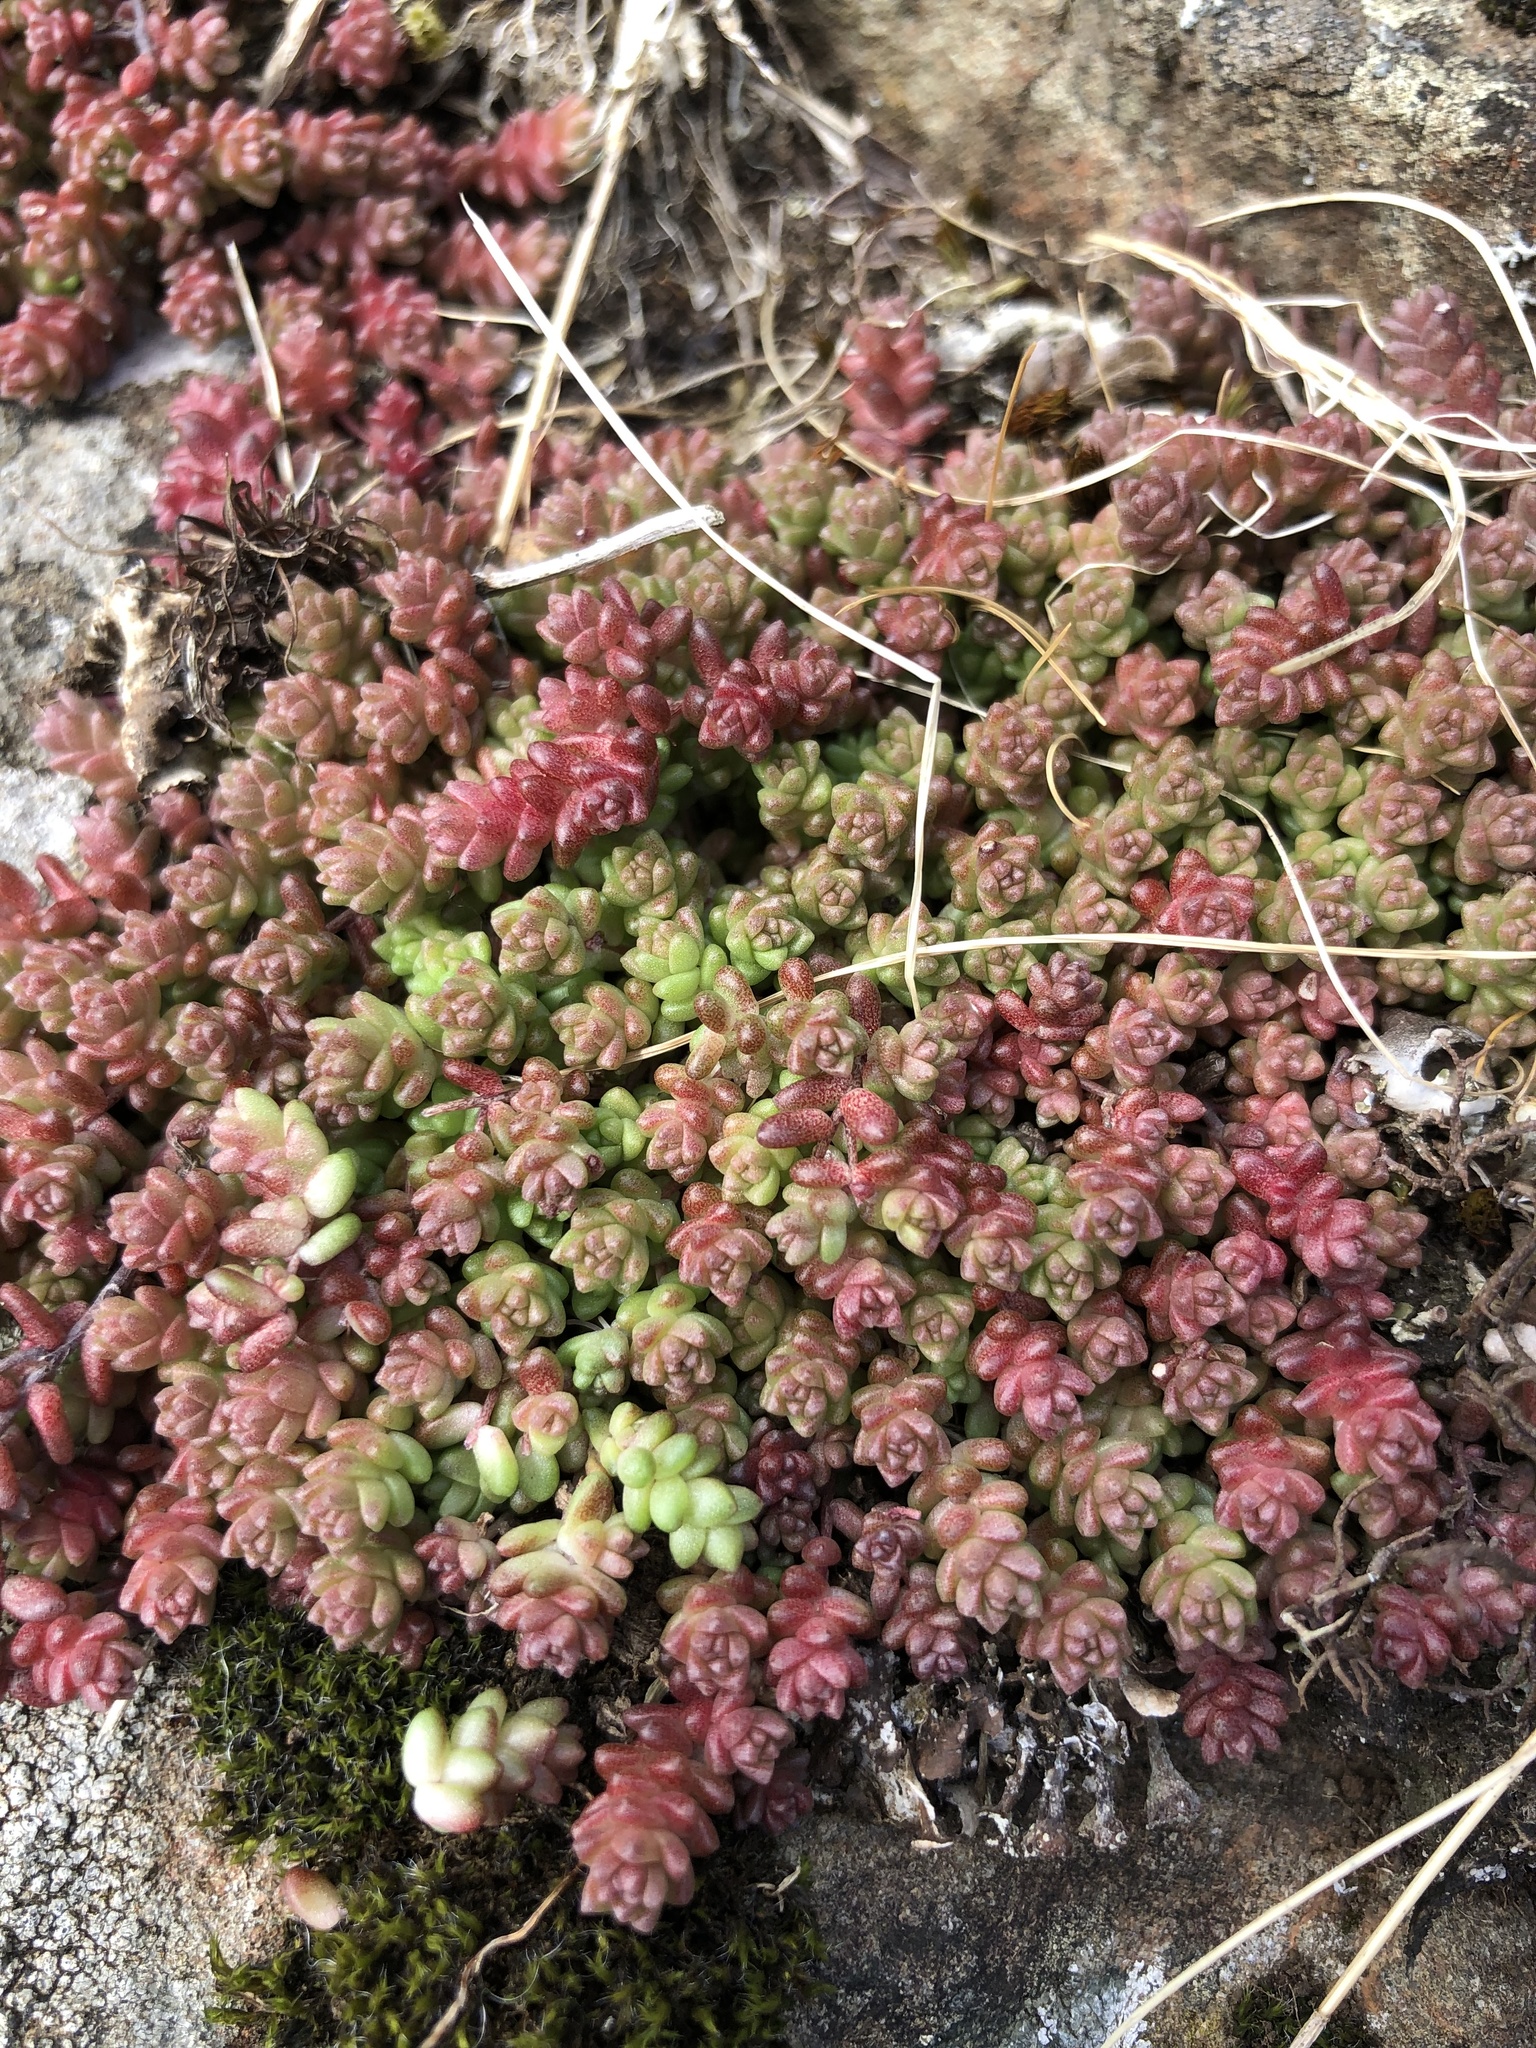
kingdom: Plantae
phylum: Tracheophyta
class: Magnoliopsida
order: Saxifragales
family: Crassulaceae
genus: Sedum
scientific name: Sedum anglicum
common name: English stonecrop
